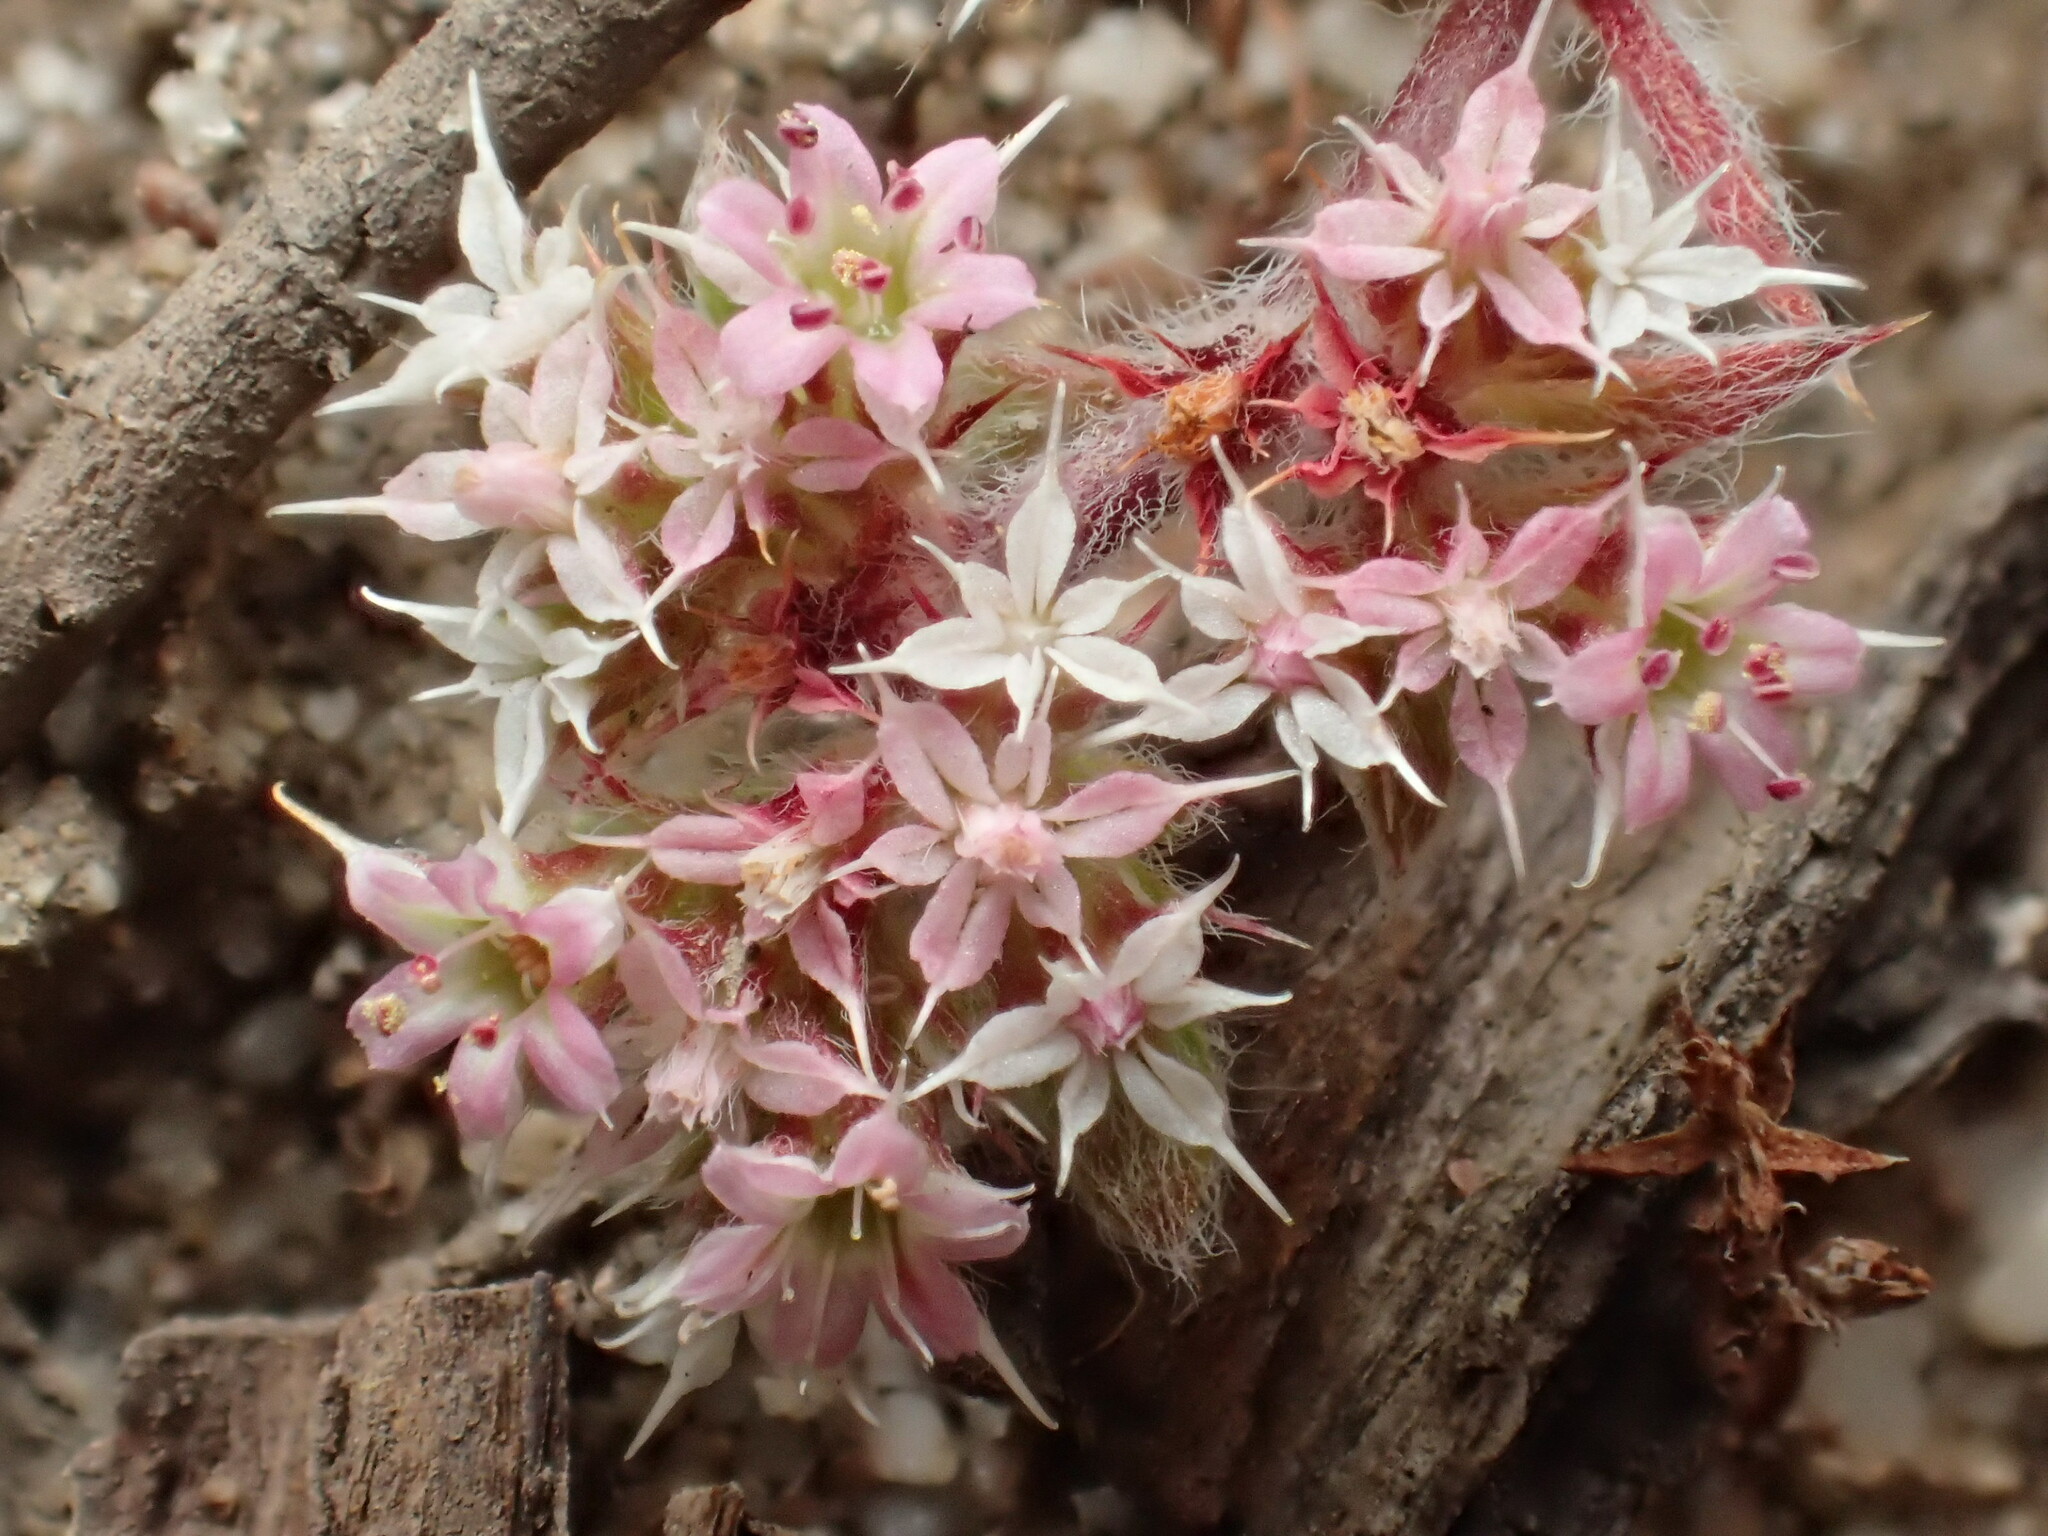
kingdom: Plantae
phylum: Tracheophyta
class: Magnoliopsida
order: Caryophyllales
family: Polygonaceae
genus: Chorizanthe
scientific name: Chorizanthe pungens
